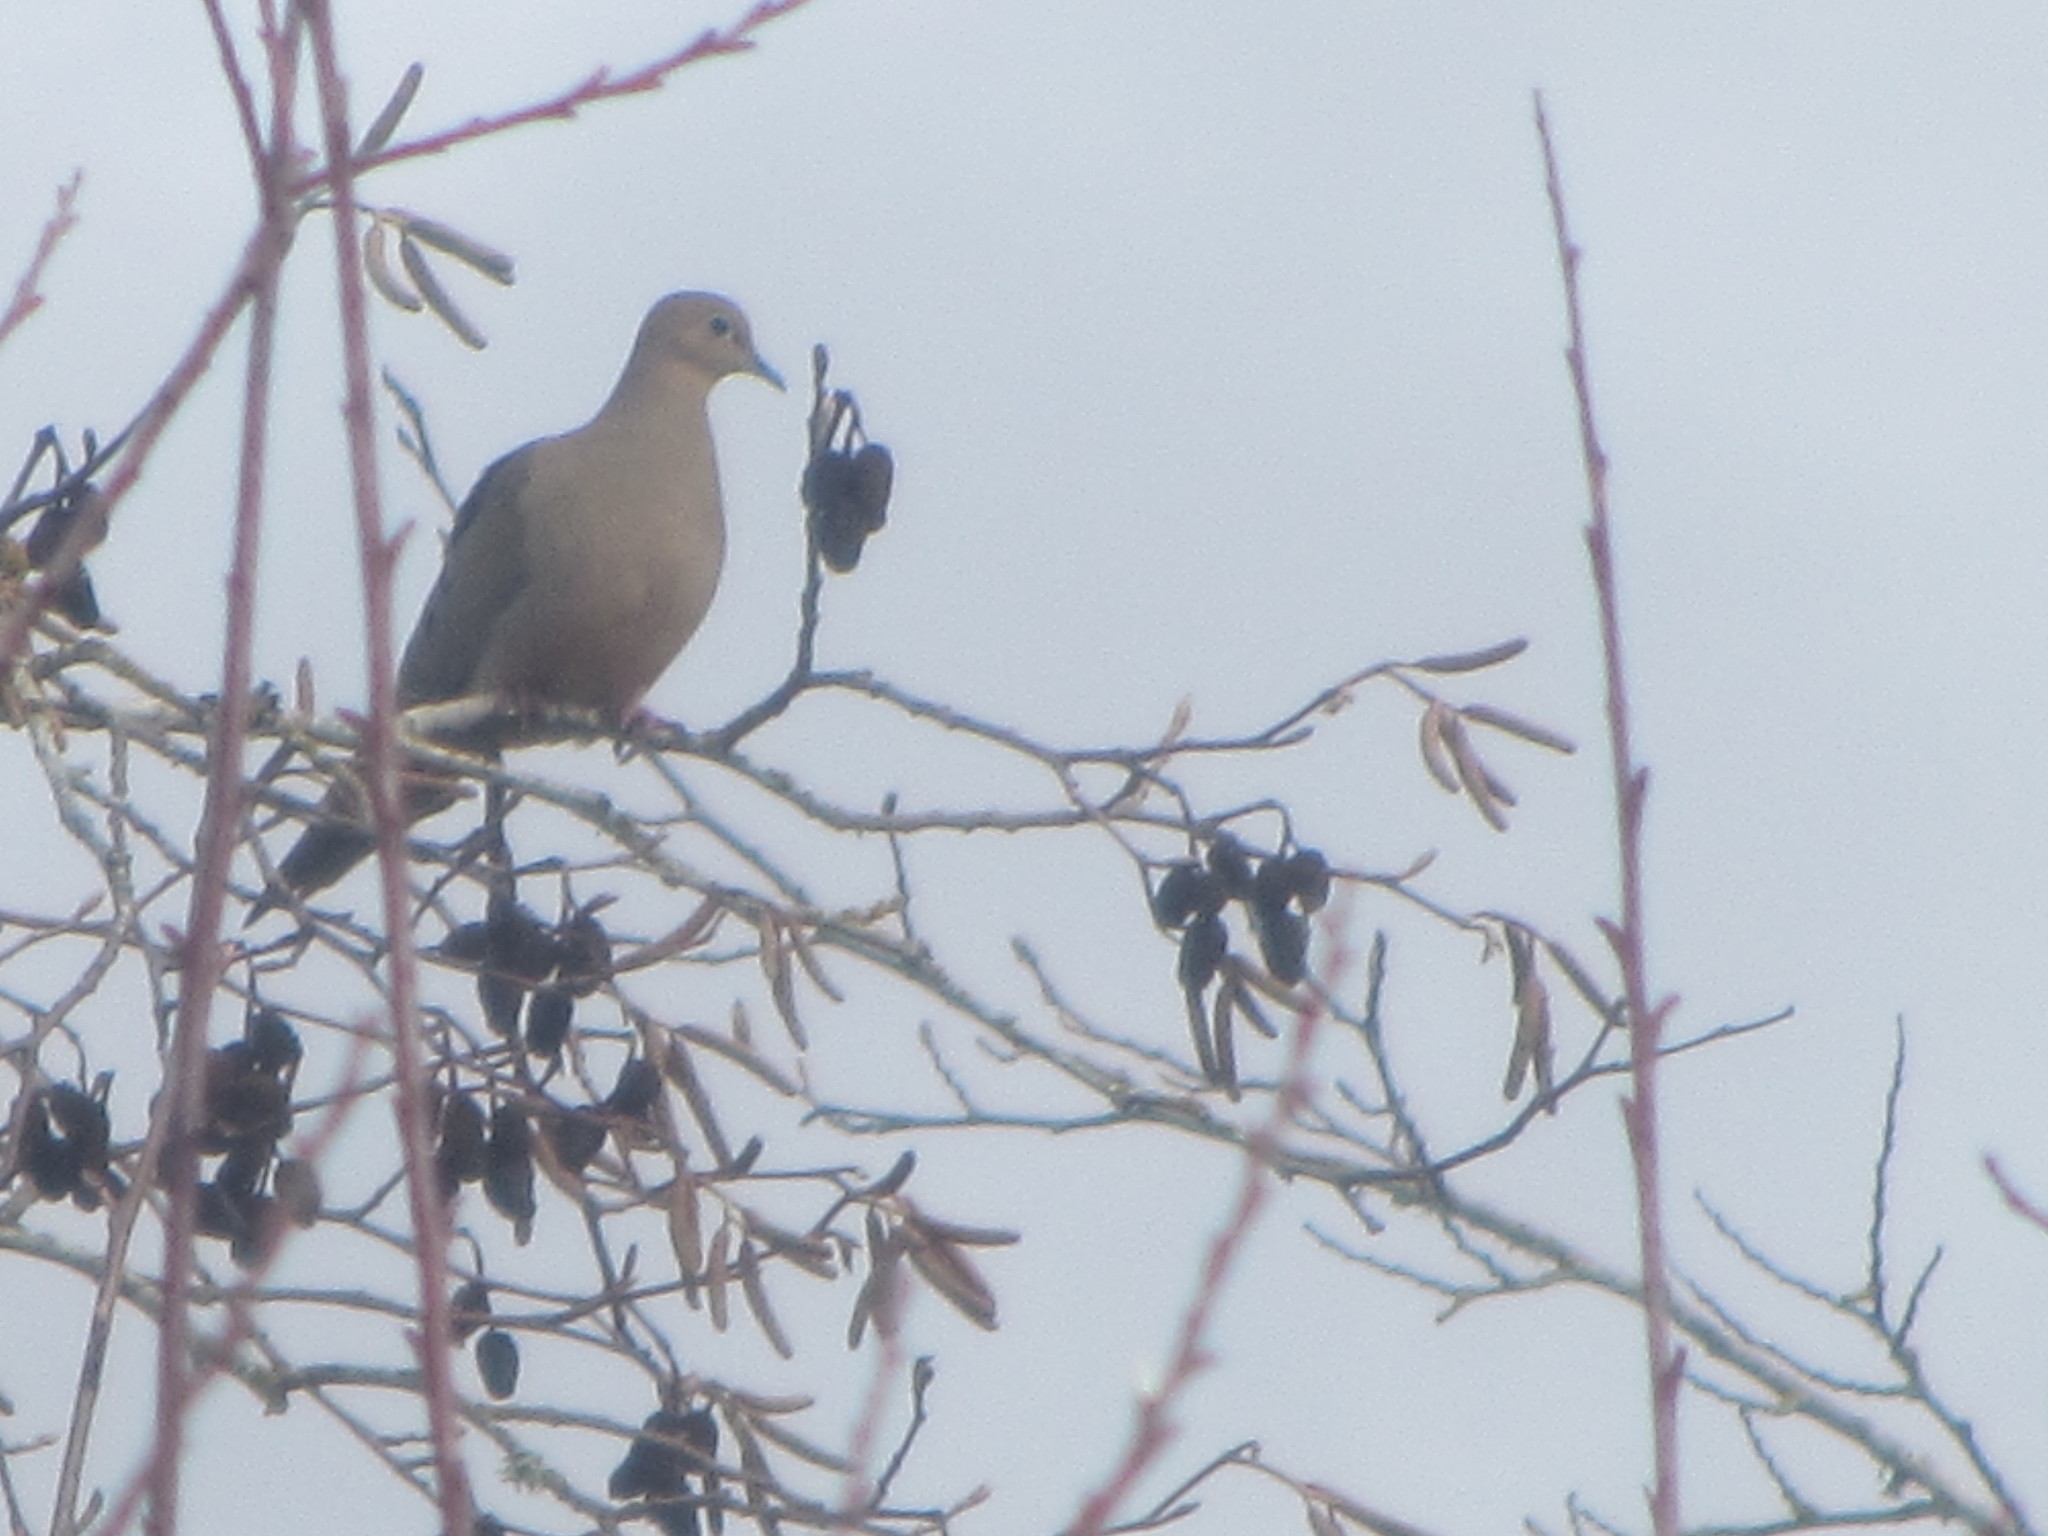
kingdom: Animalia
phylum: Chordata
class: Aves
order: Columbiformes
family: Columbidae
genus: Zenaida
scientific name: Zenaida macroura
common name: Mourning dove
